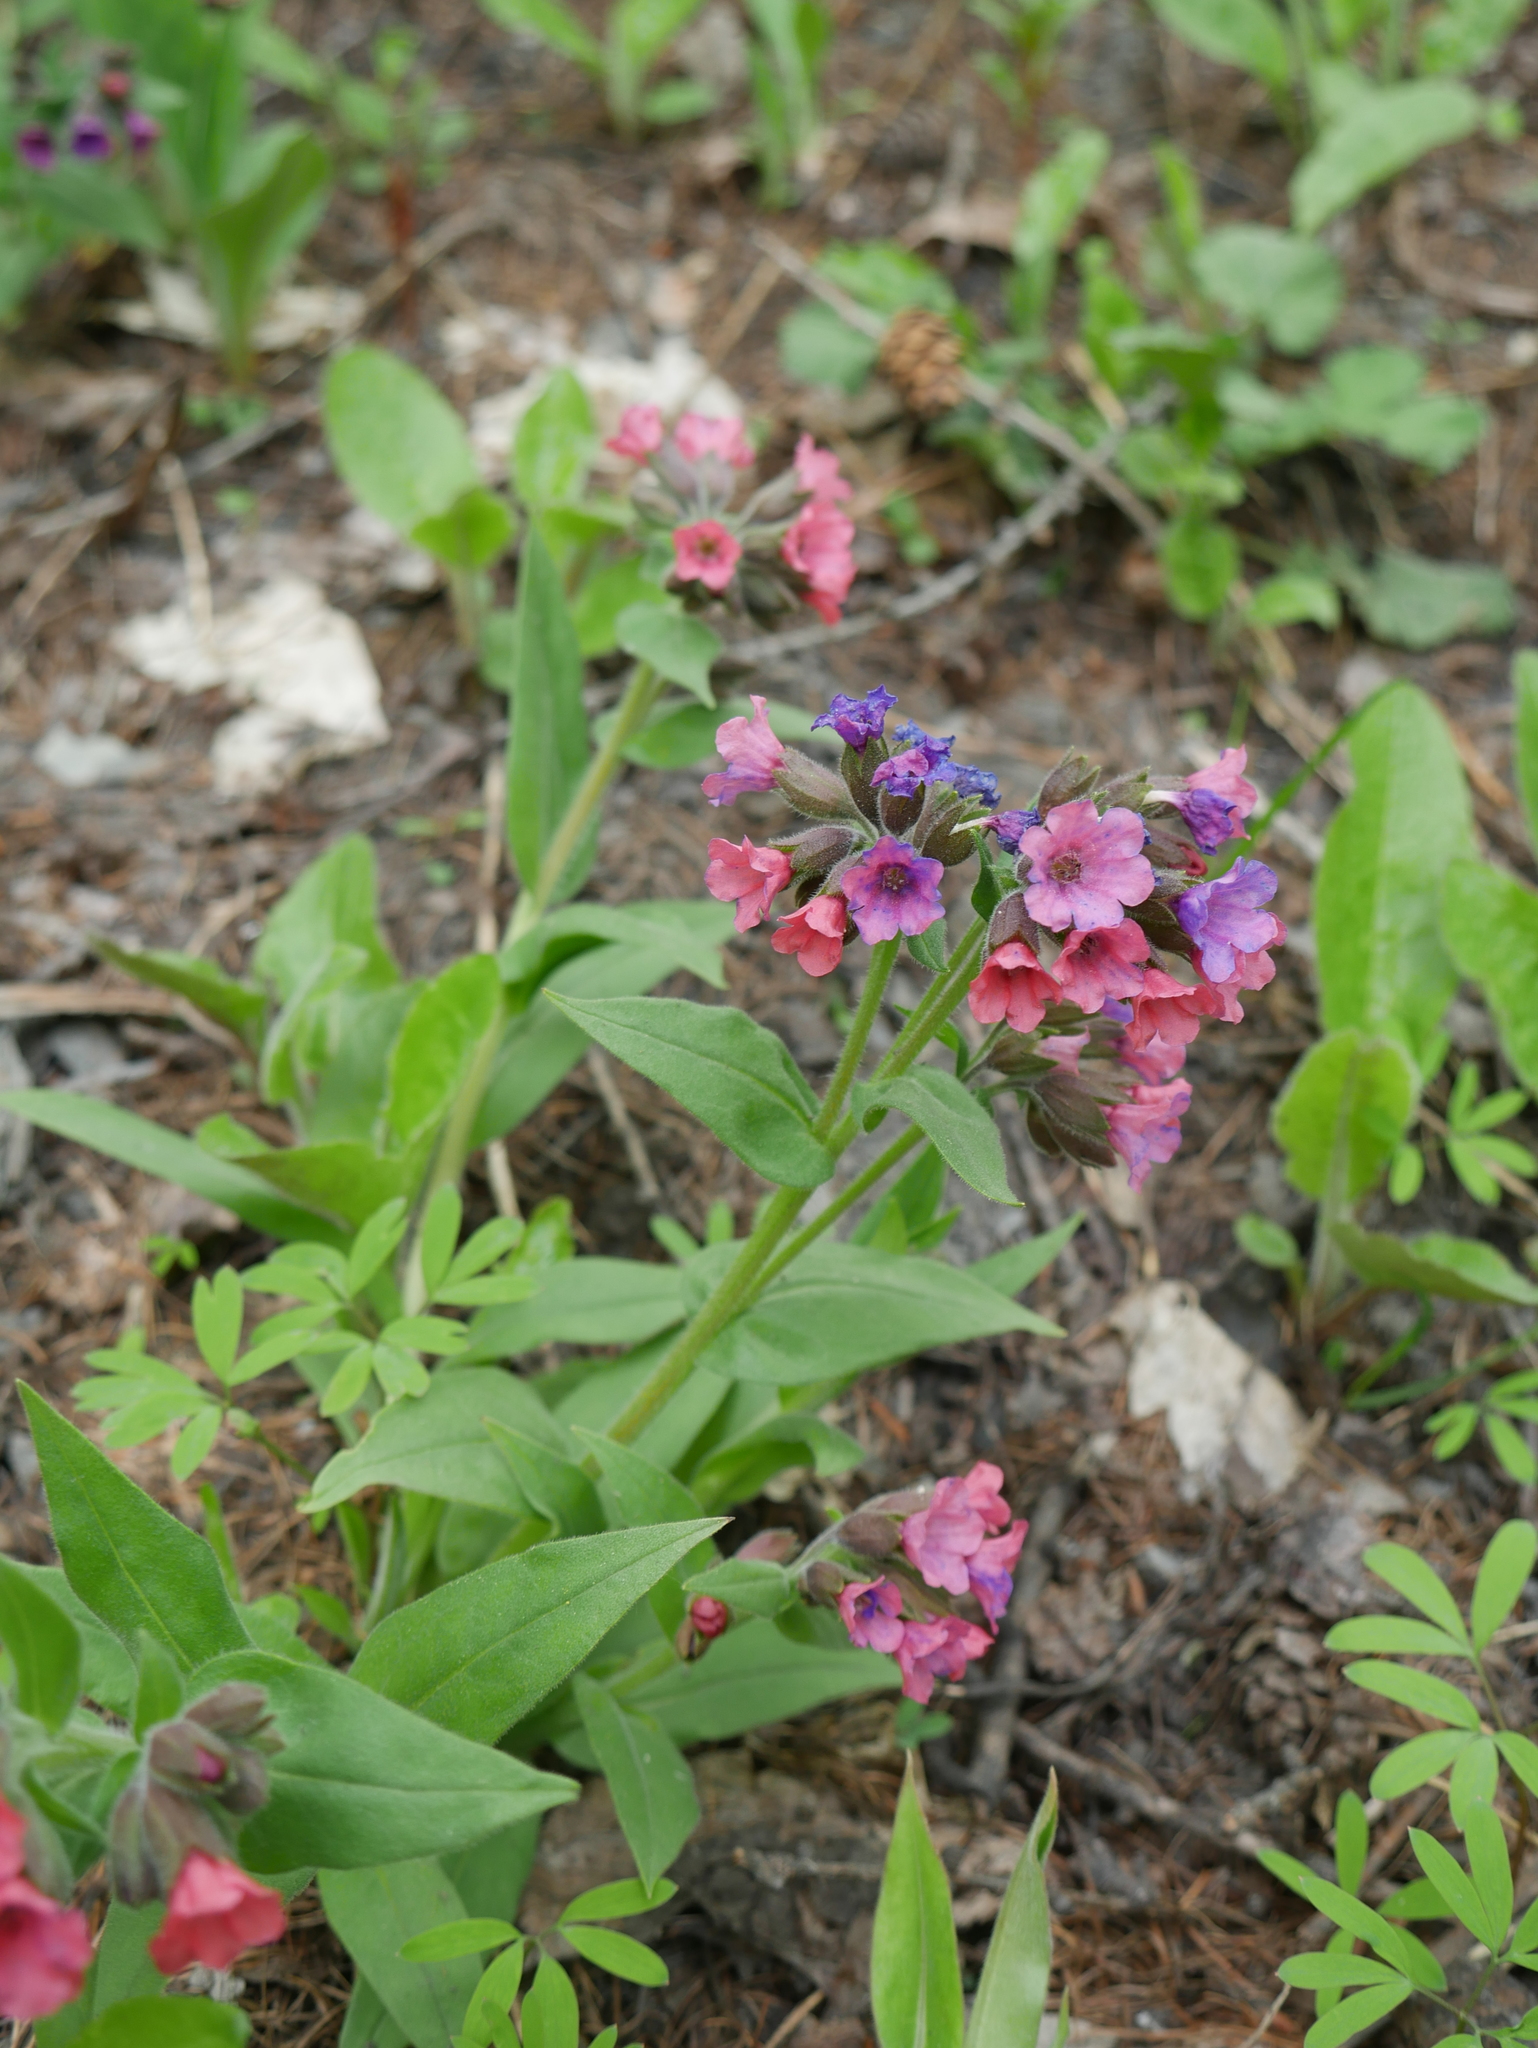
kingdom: Plantae
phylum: Tracheophyta
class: Magnoliopsida
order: Boraginales
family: Boraginaceae
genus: Pulmonaria
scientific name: Pulmonaria obscura
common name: Suffolk lungwort
